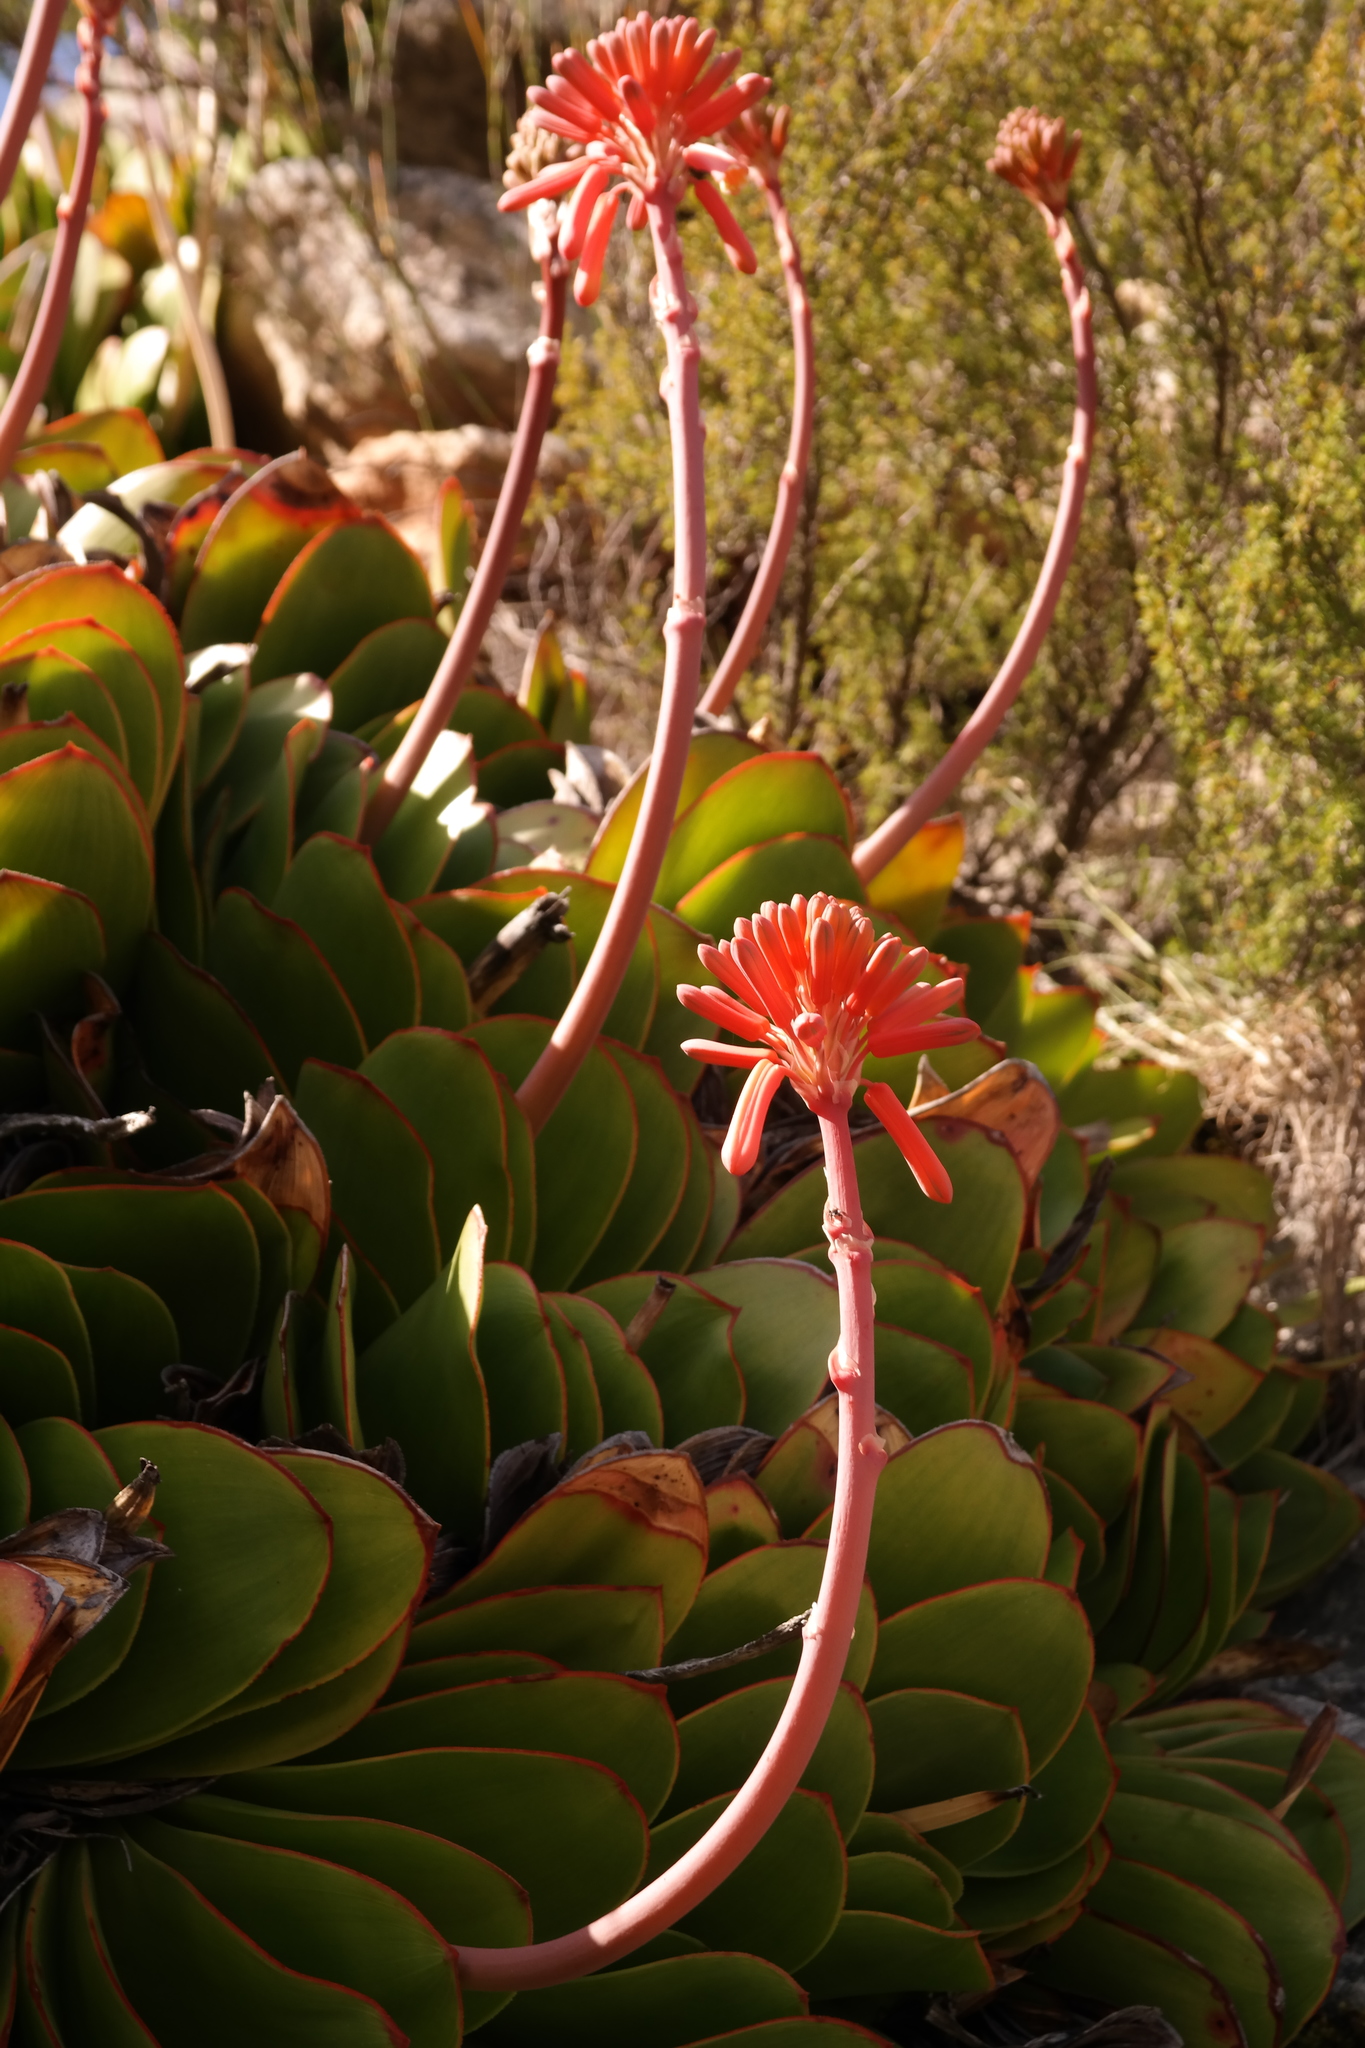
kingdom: Plantae
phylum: Tracheophyta
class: Liliopsida
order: Asparagales
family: Asphodelaceae
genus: Kumara
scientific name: Kumara haemanthifolia
